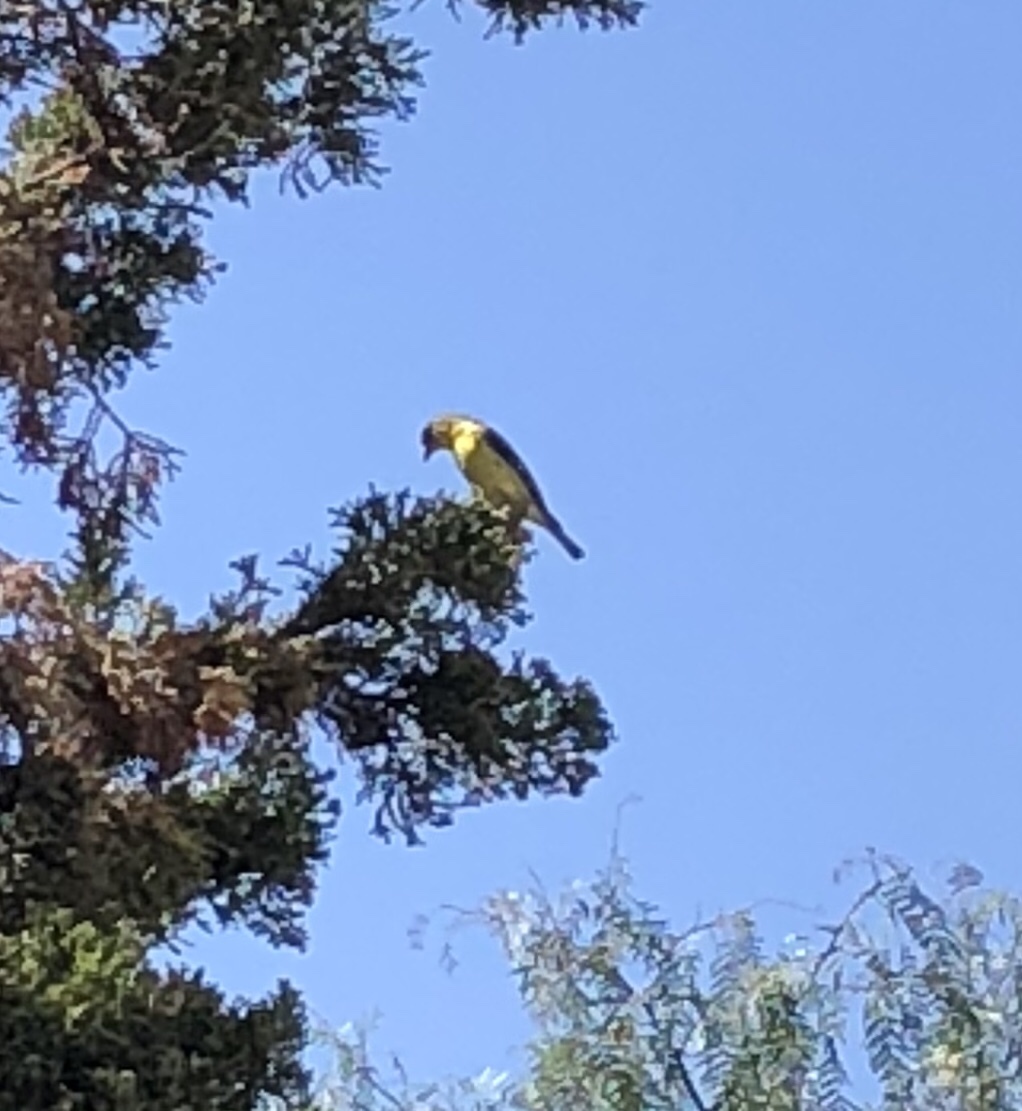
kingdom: Animalia
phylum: Chordata
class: Aves
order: Passeriformes
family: Fringillidae
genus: Spinus
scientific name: Spinus psaltria
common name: Lesser goldfinch
